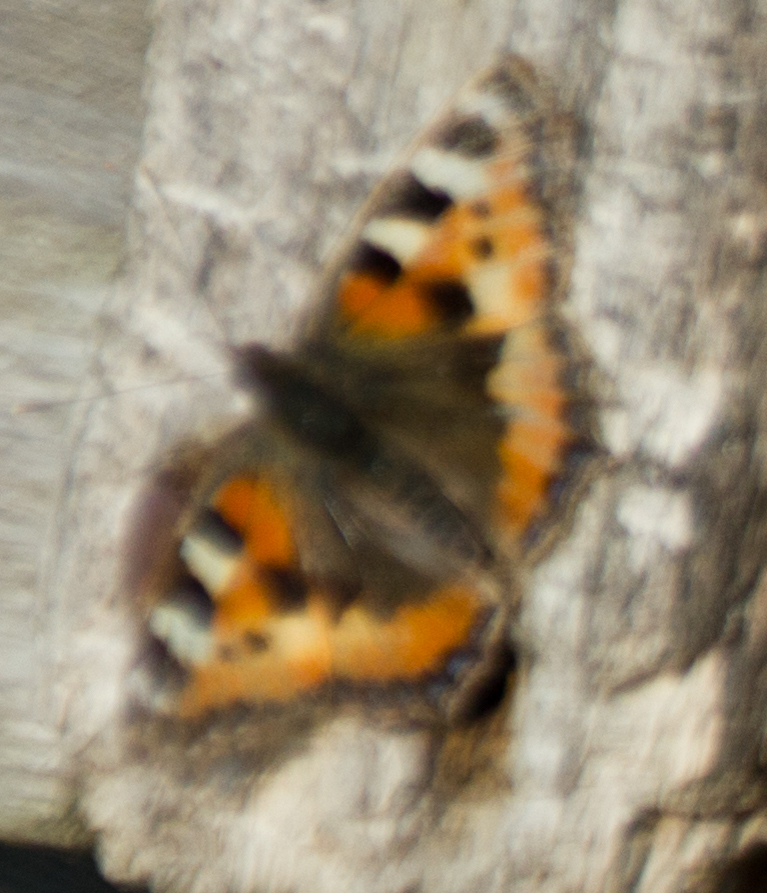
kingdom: Animalia
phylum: Arthropoda
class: Insecta
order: Lepidoptera
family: Nymphalidae
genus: Aglais
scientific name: Aglais urticae
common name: Small tortoiseshell
